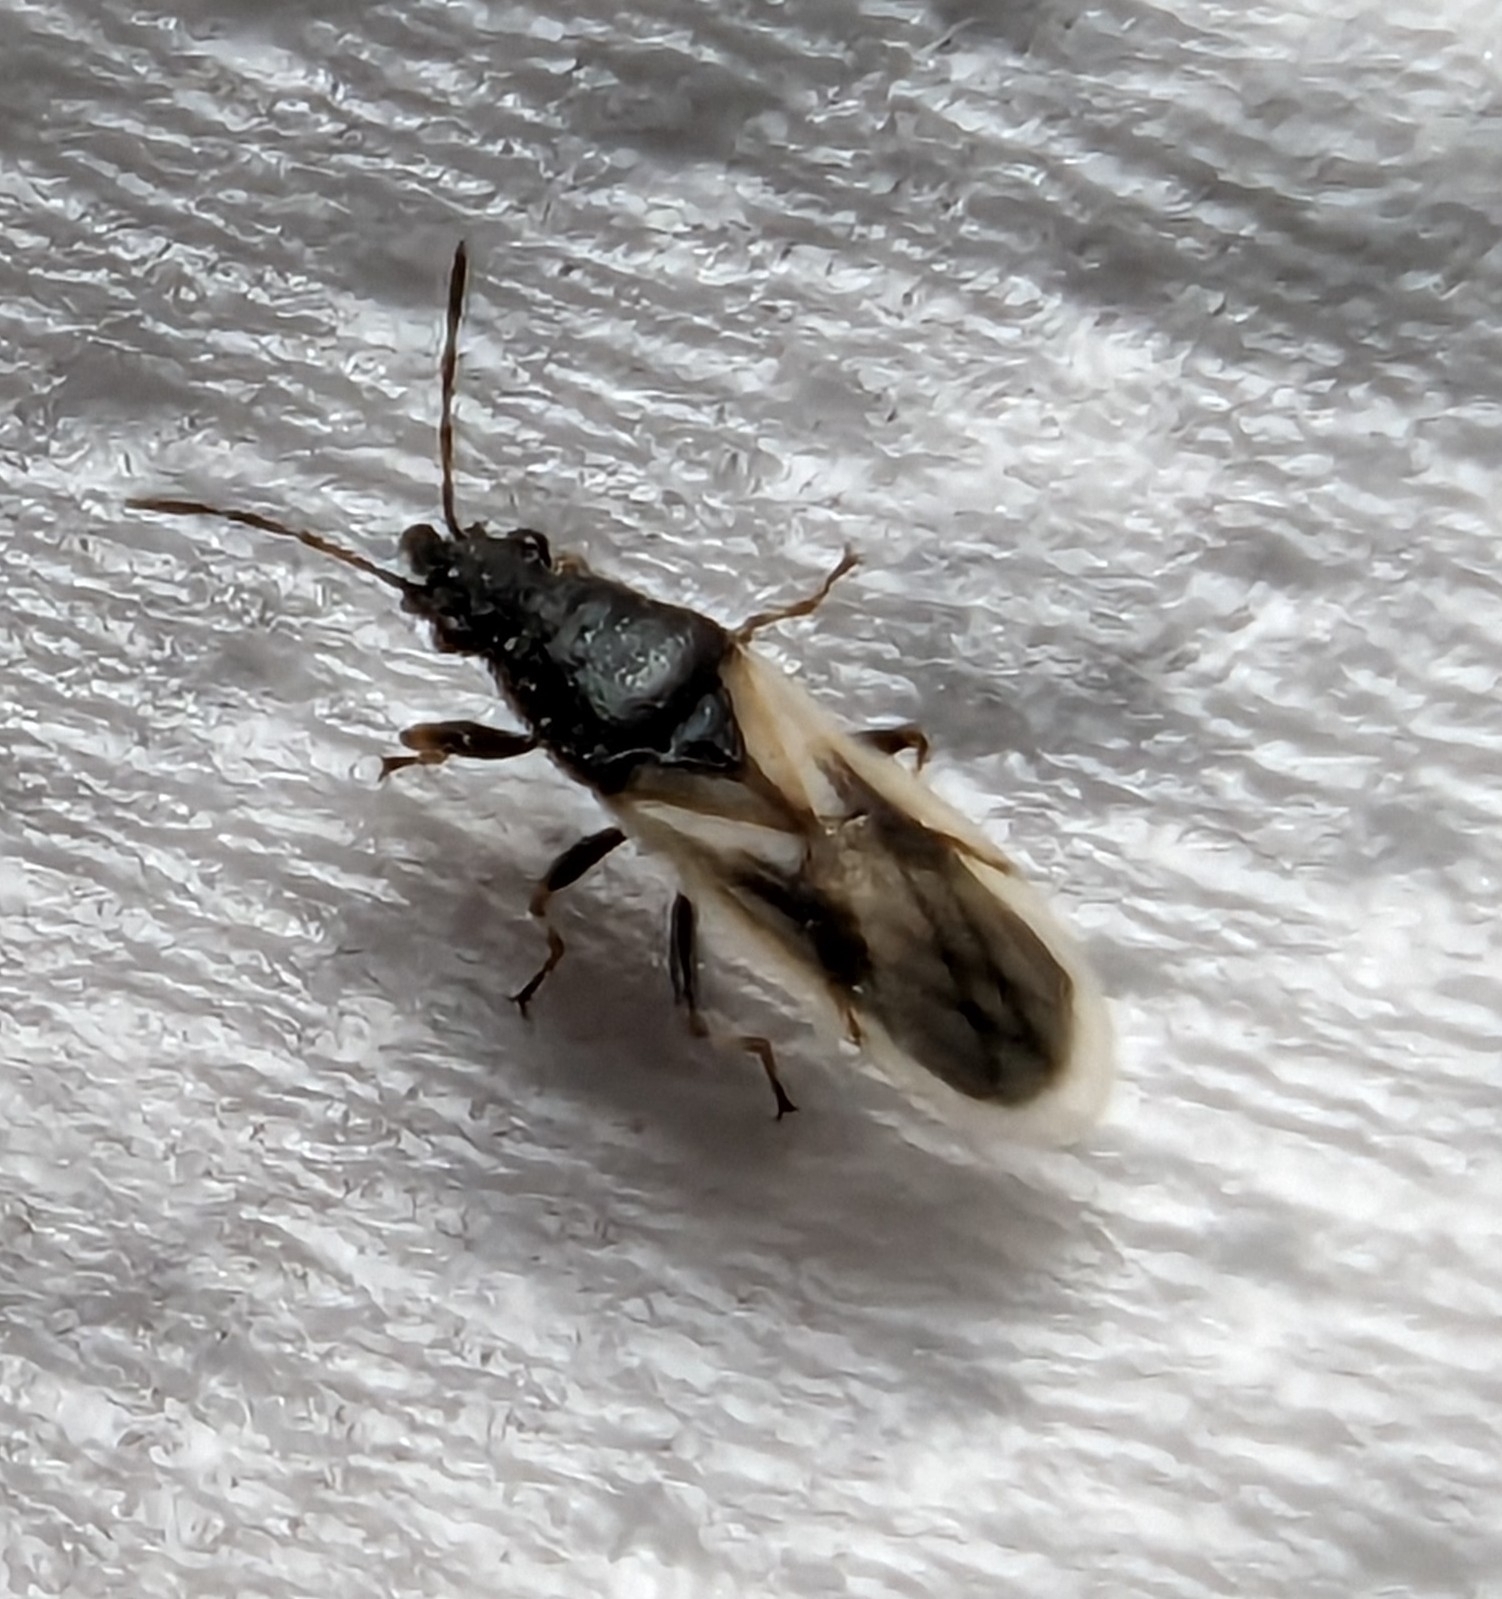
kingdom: Animalia
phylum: Arthropoda
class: Insecta
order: Hemiptera
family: Oxycarenidae
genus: Metopoplax
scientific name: Metopoplax ditomoides
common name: Seed bug
